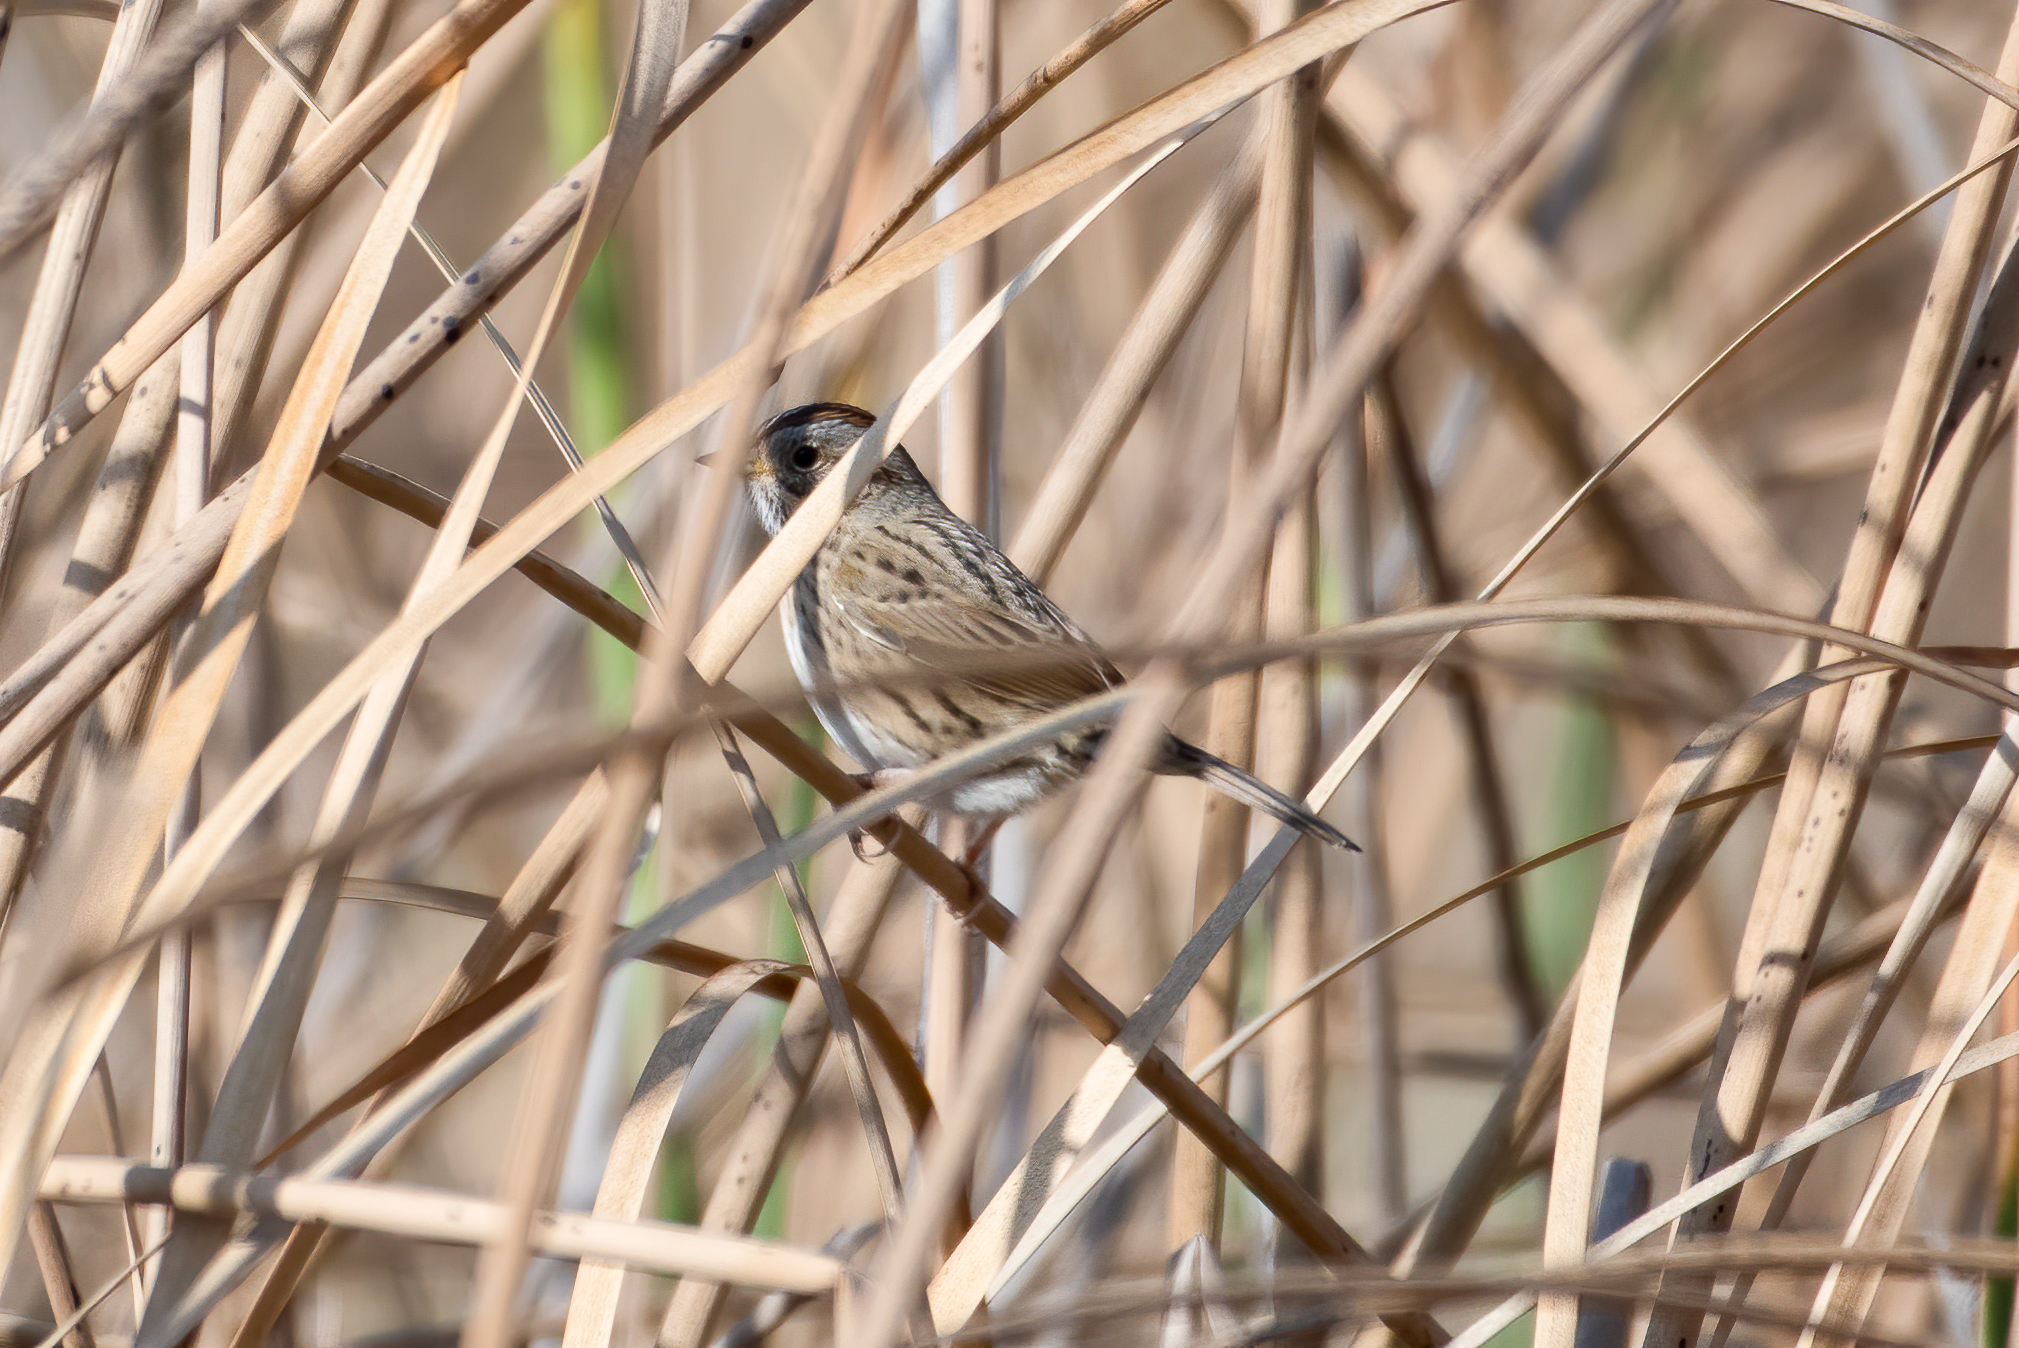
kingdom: Animalia
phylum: Chordata
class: Aves
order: Passeriformes
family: Passerellidae
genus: Melospiza
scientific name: Melospiza lincolnii
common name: Lincoln's sparrow
